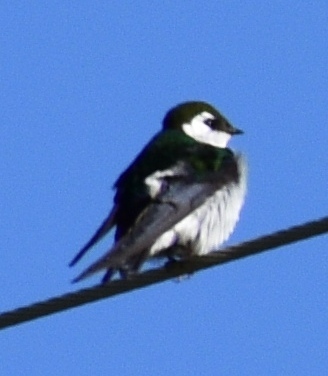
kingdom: Animalia
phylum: Chordata
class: Aves
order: Passeriformes
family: Hirundinidae
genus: Tachycineta
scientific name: Tachycineta thalassina
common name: Violet-green swallow
